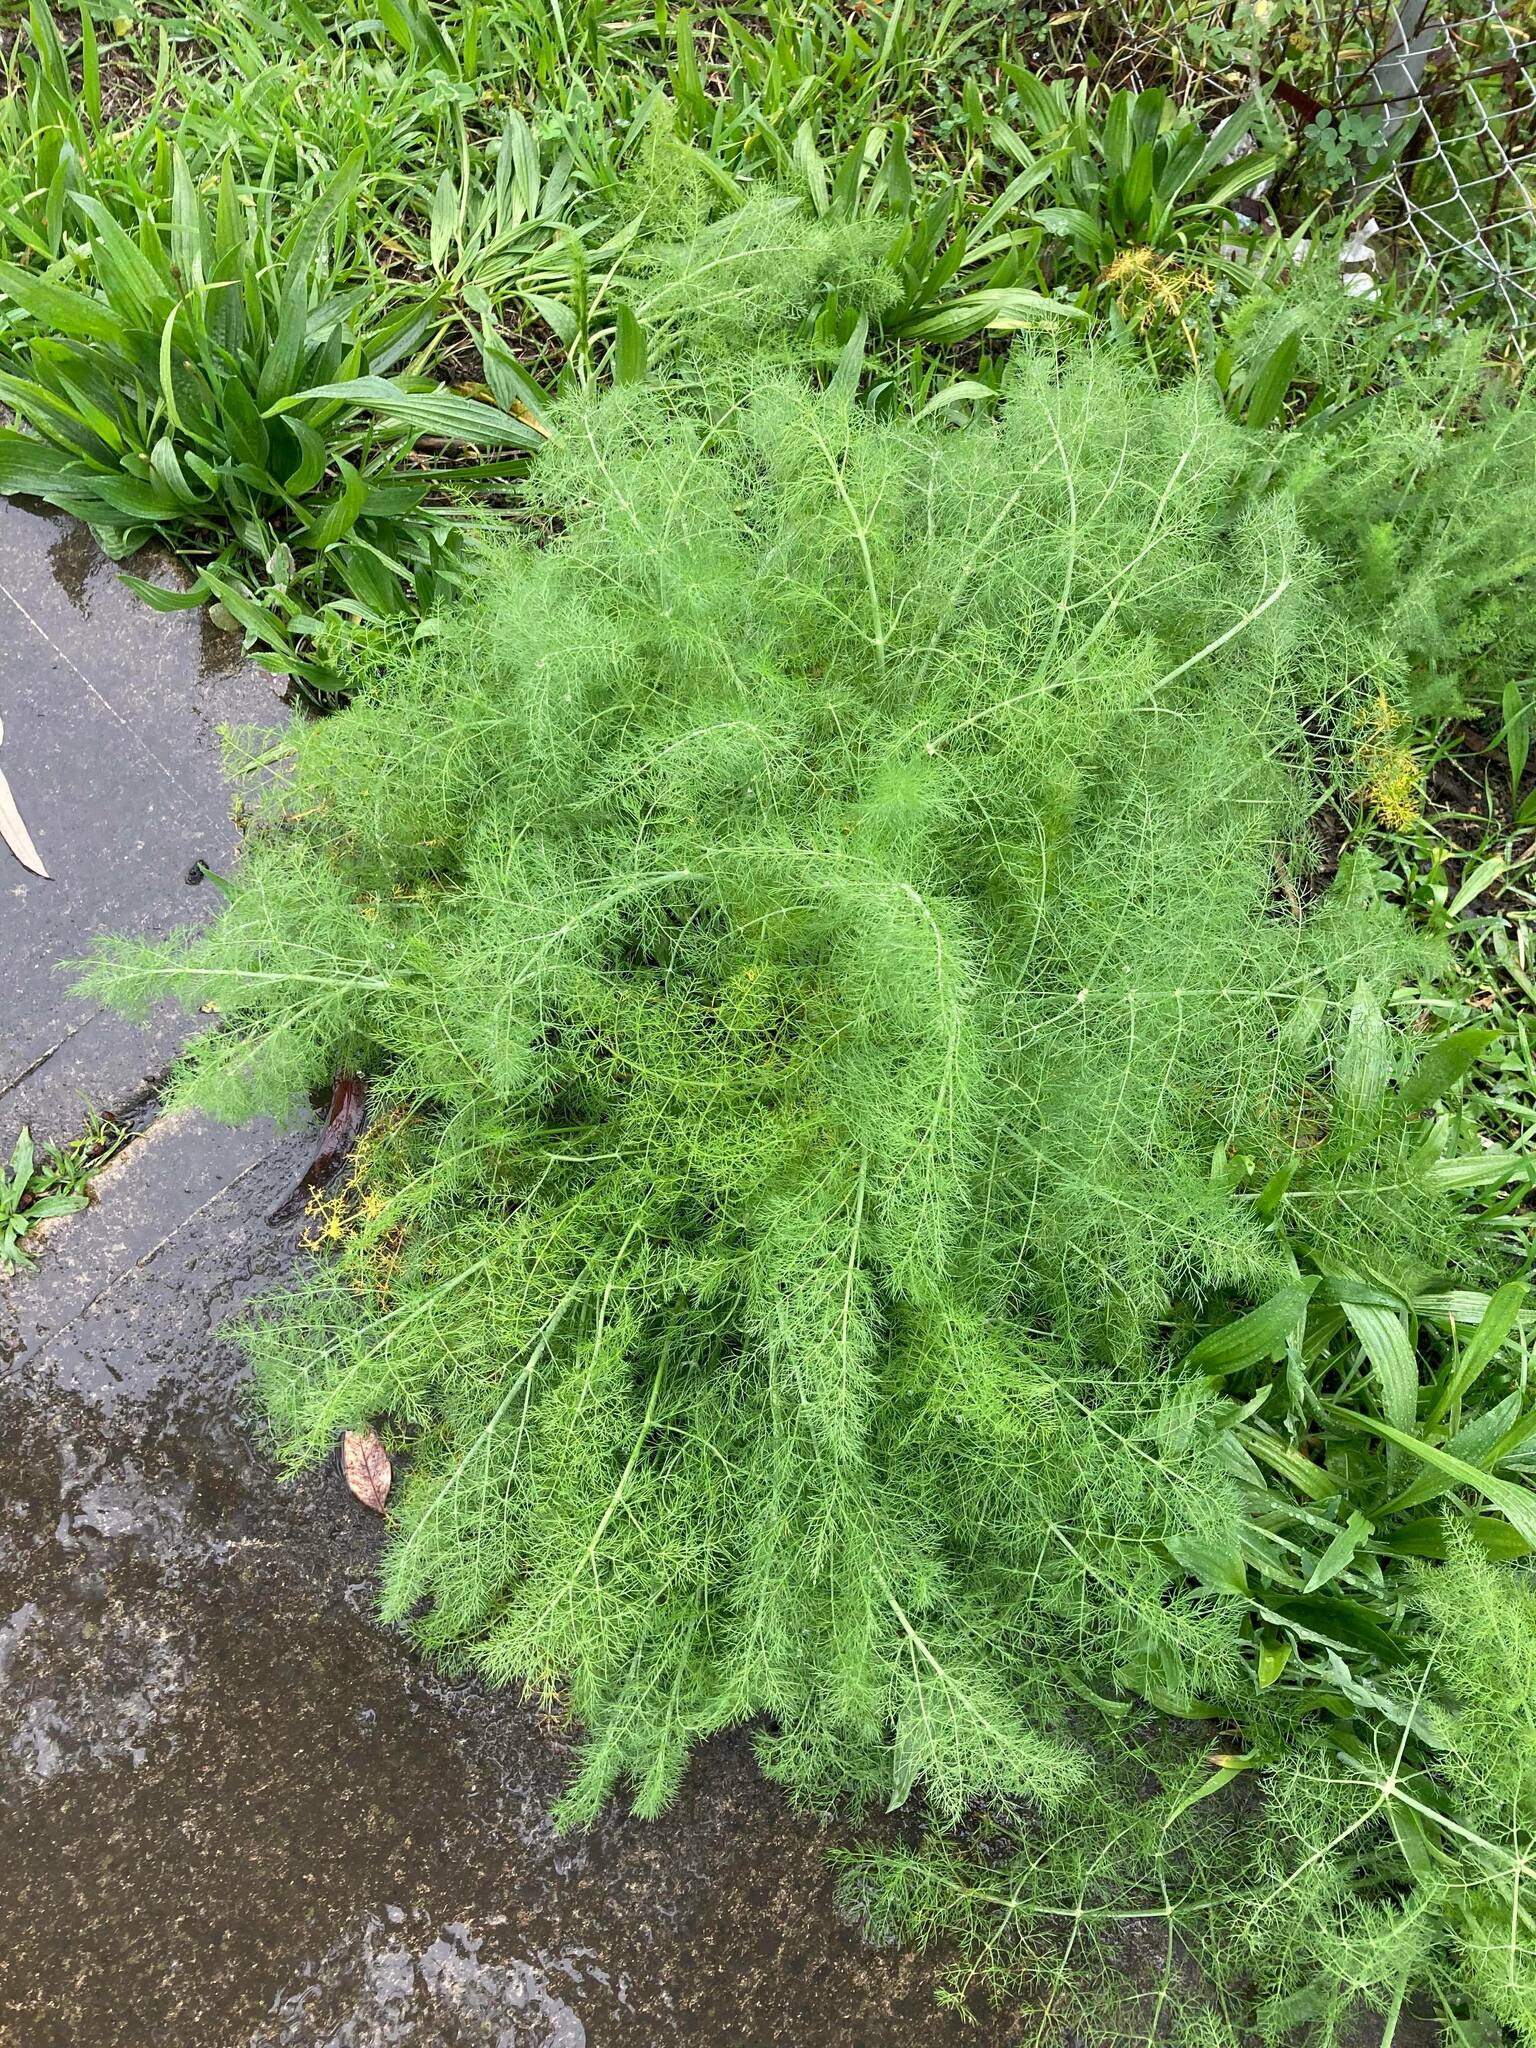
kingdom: Plantae
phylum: Tracheophyta
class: Magnoliopsida
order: Apiales
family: Apiaceae
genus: Foeniculum
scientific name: Foeniculum vulgare
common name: Fennel
